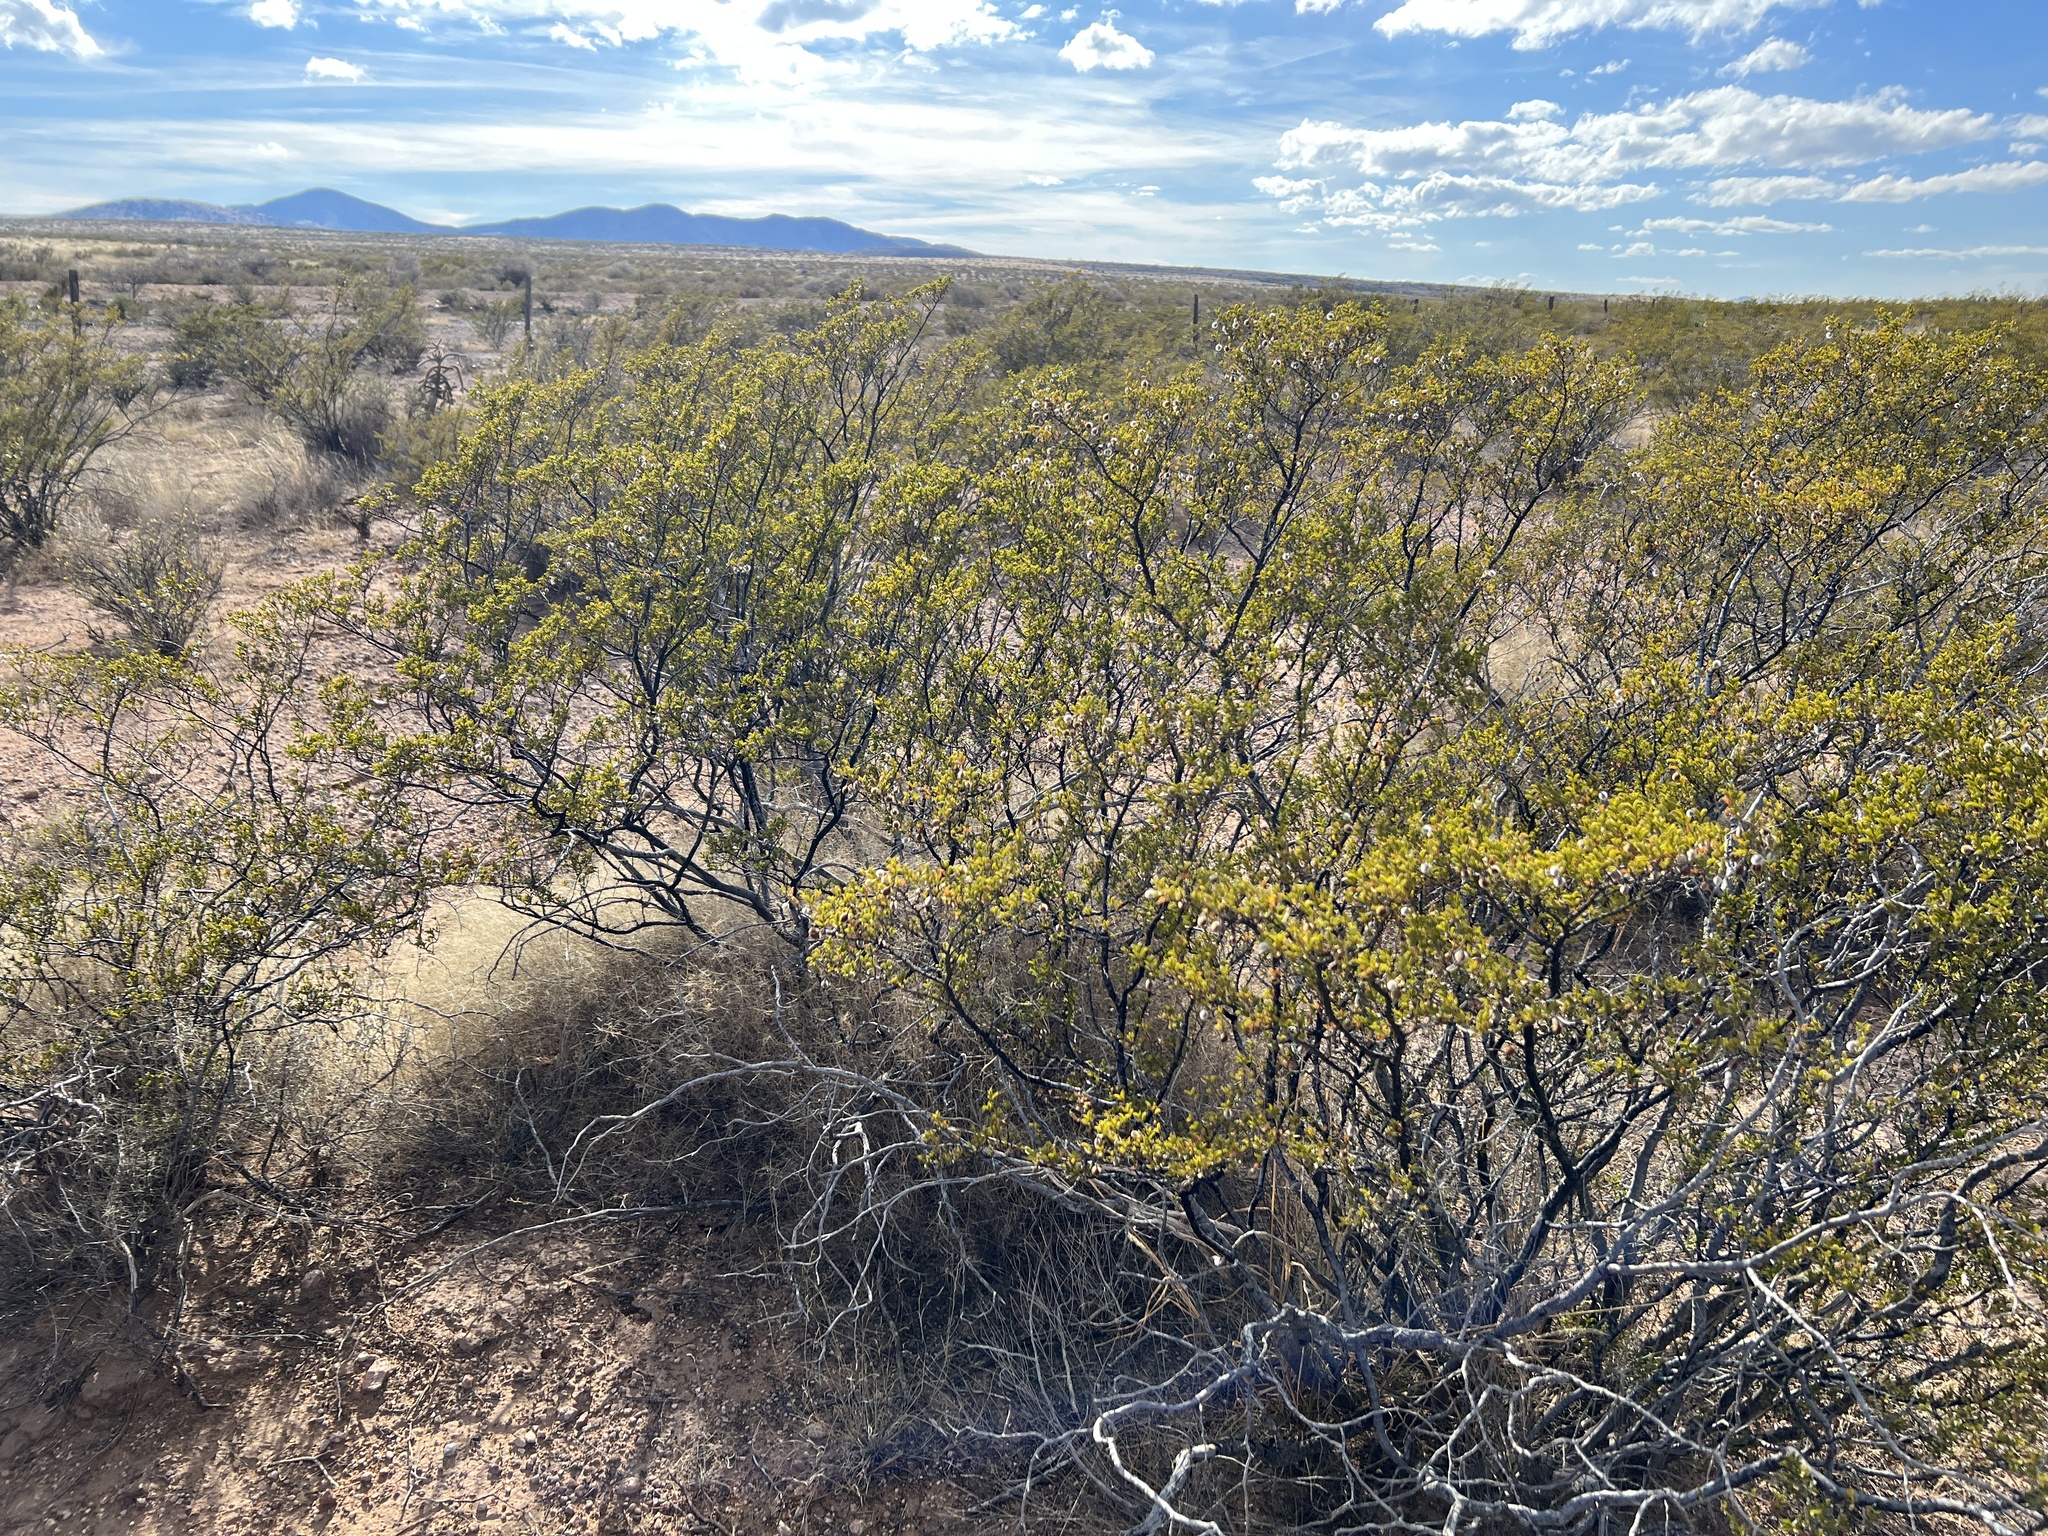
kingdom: Plantae
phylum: Tracheophyta
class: Magnoliopsida
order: Zygophyllales
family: Zygophyllaceae
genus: Larrea
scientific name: Larrea tridentata
